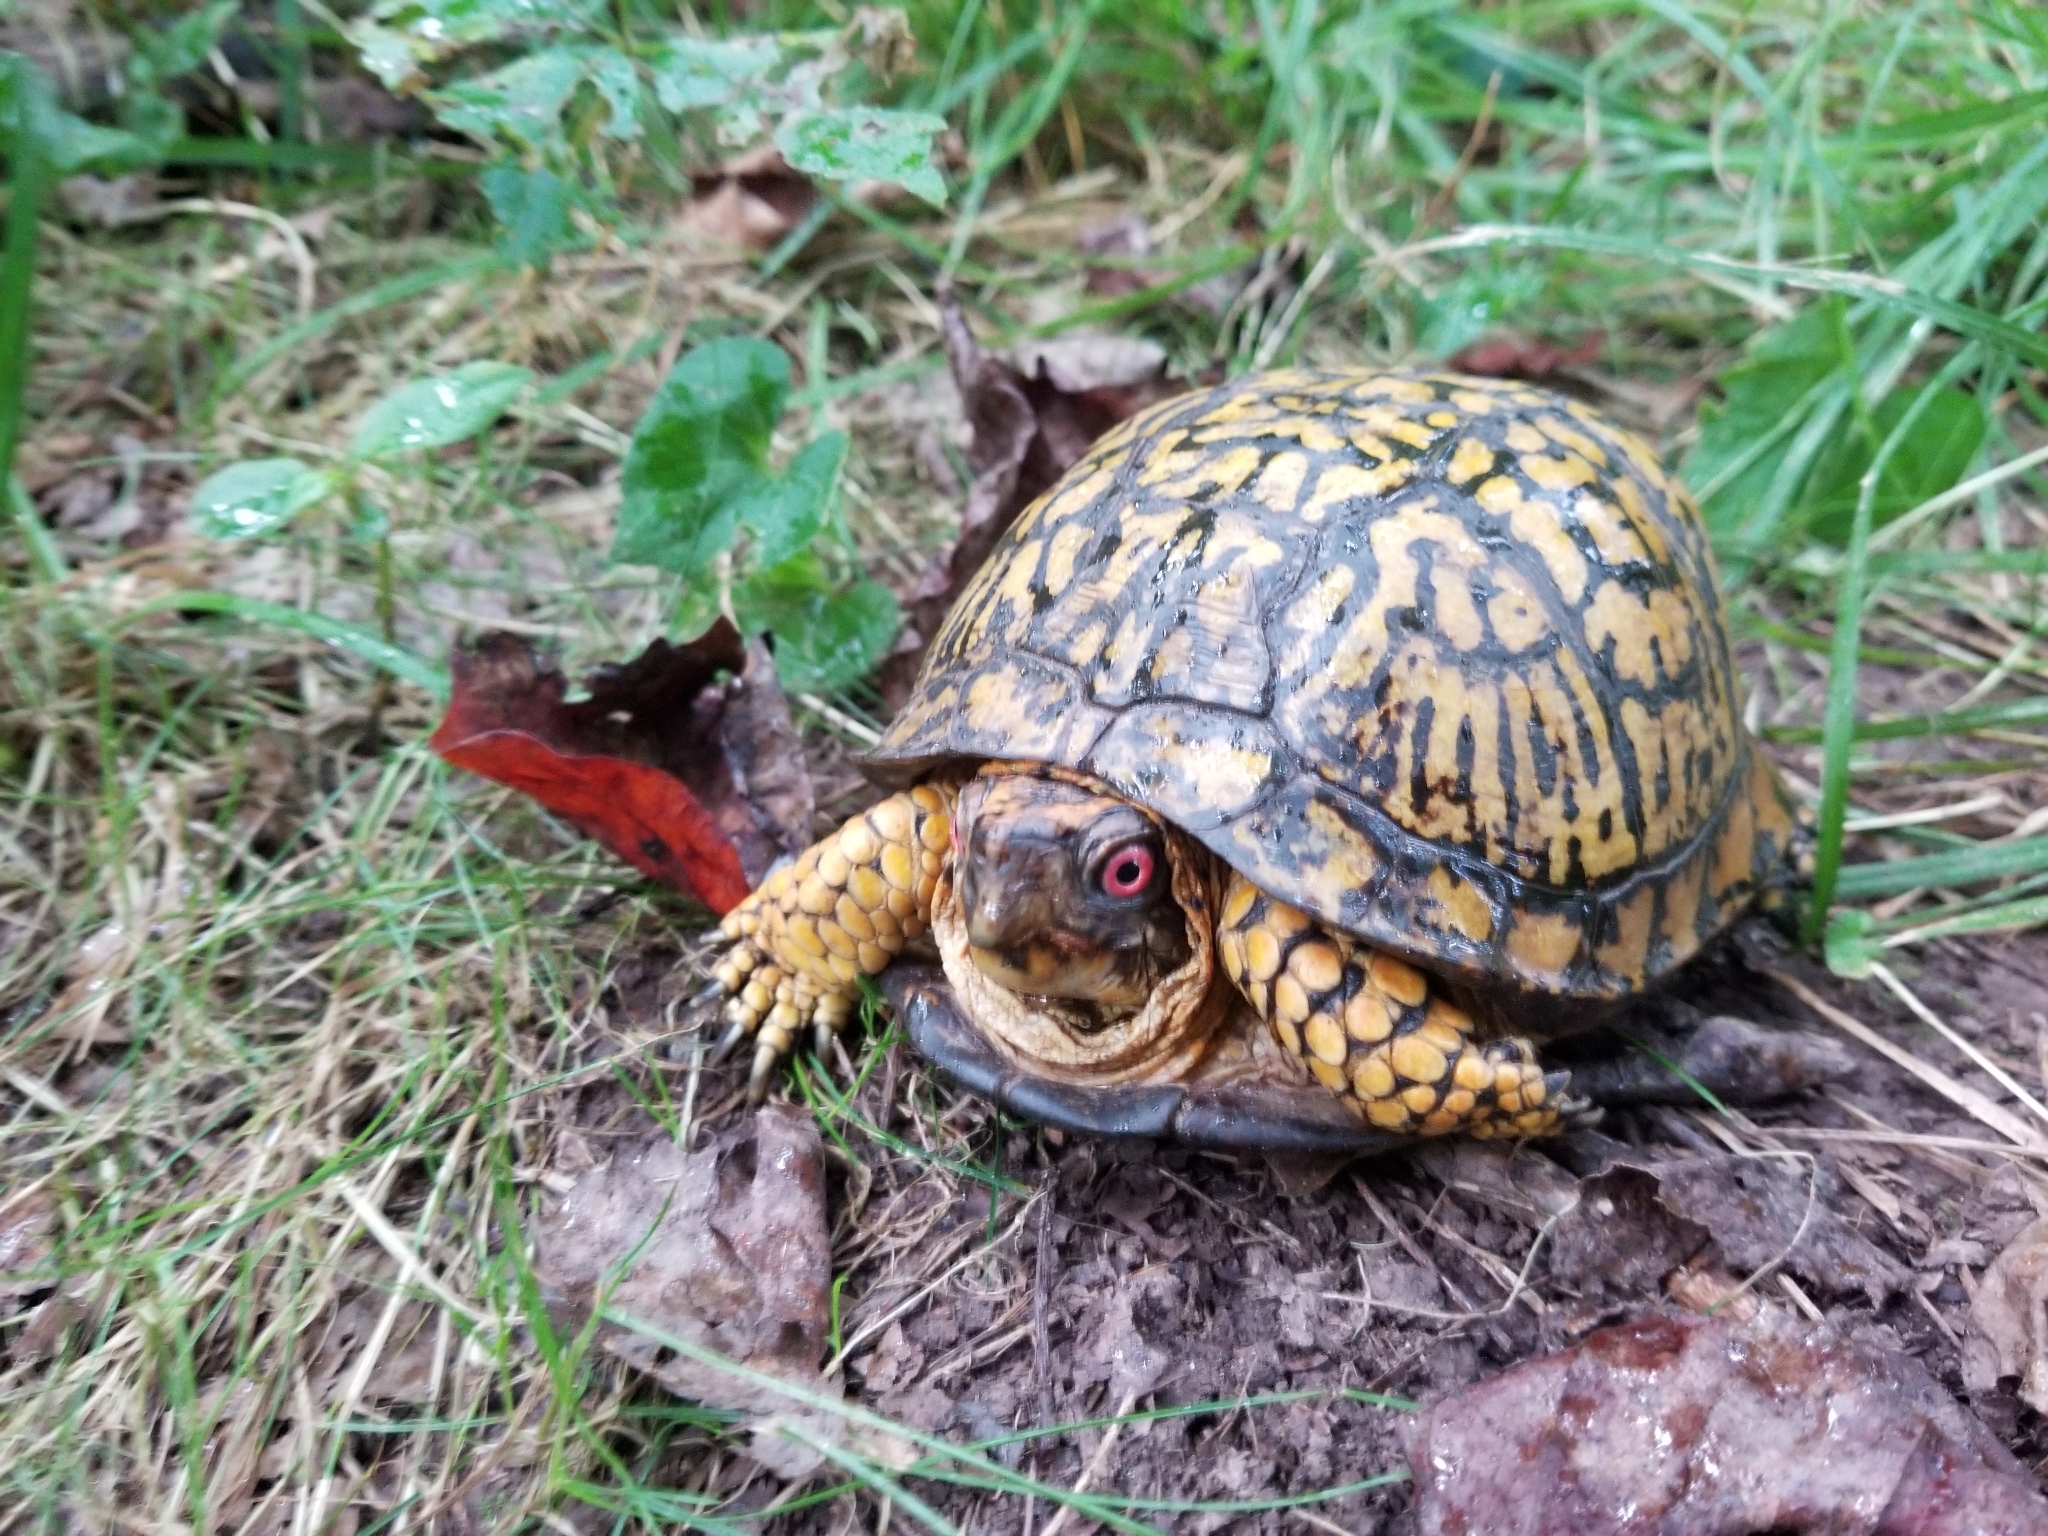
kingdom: Animalia
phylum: Chordata
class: Testudines
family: Emydidae
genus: Terrapene
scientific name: Terrapene carolina
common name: Common box turtle
